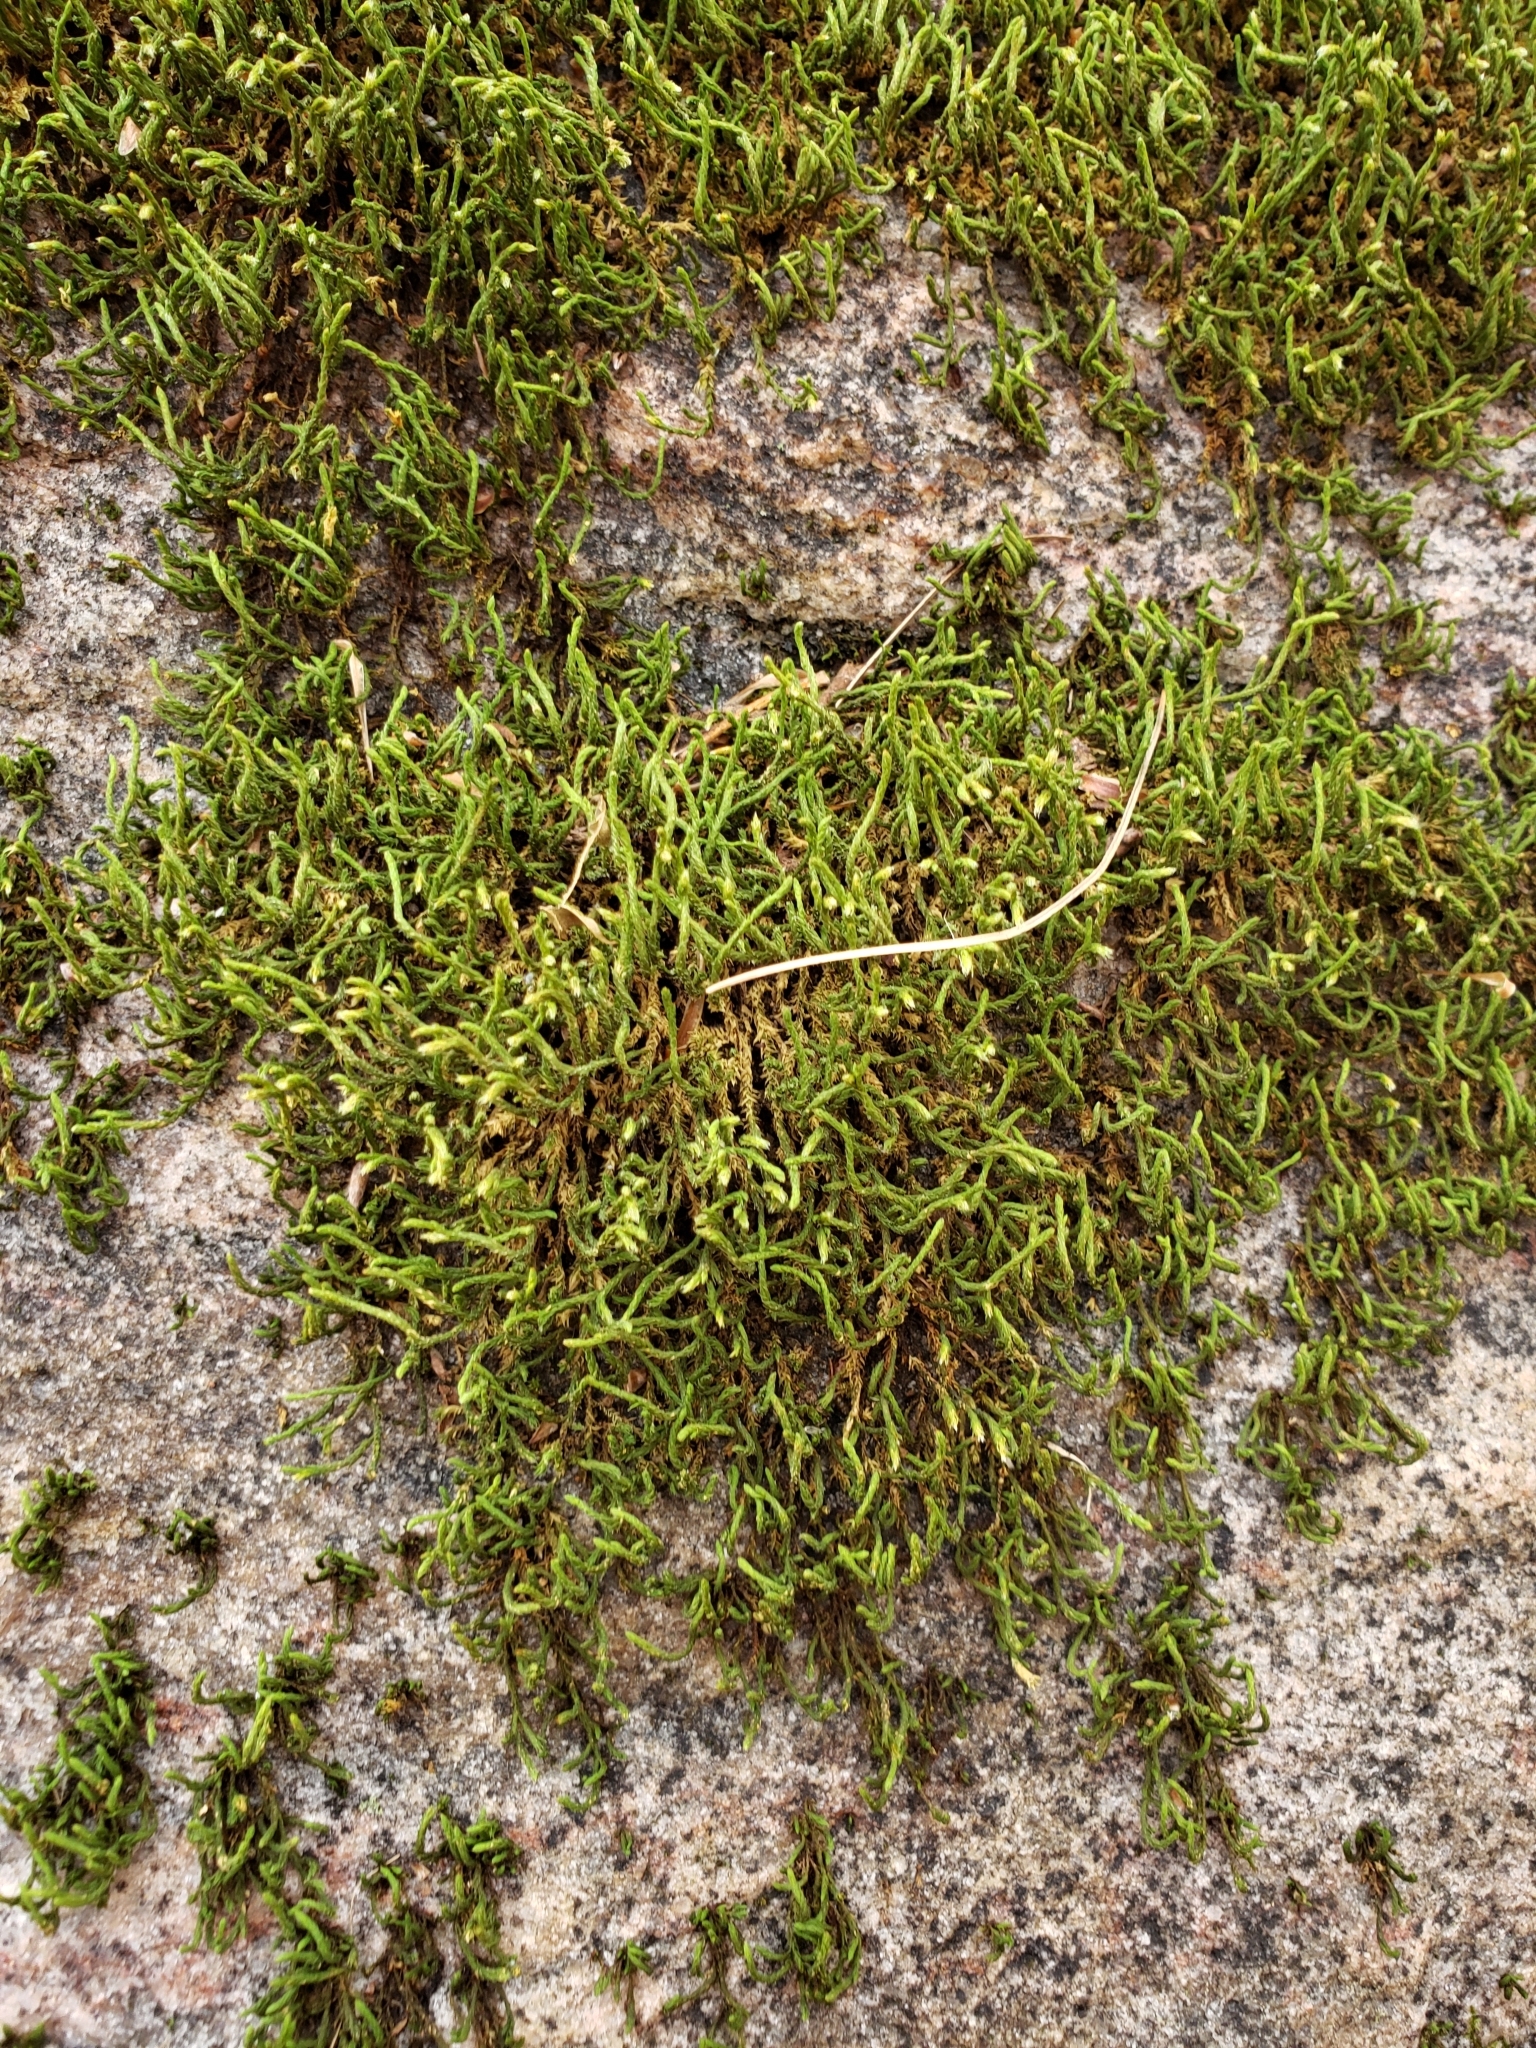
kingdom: Plantae
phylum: Bryophyta
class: Bryopsida
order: Hedwigiales
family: Hedwigiaceae
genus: Hedwigia
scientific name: Hedwigia ciliata
